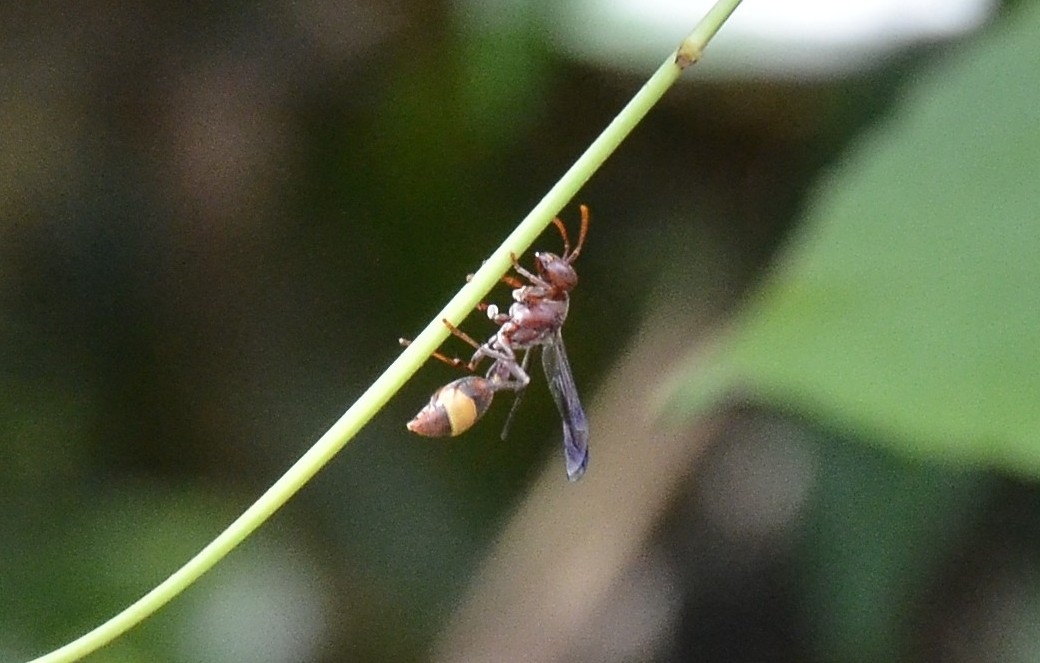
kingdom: Animalia
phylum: Arthropoda
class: Insecta
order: Hymenoptera
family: Vespidae
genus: Ropalidia
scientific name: Ropalidia
